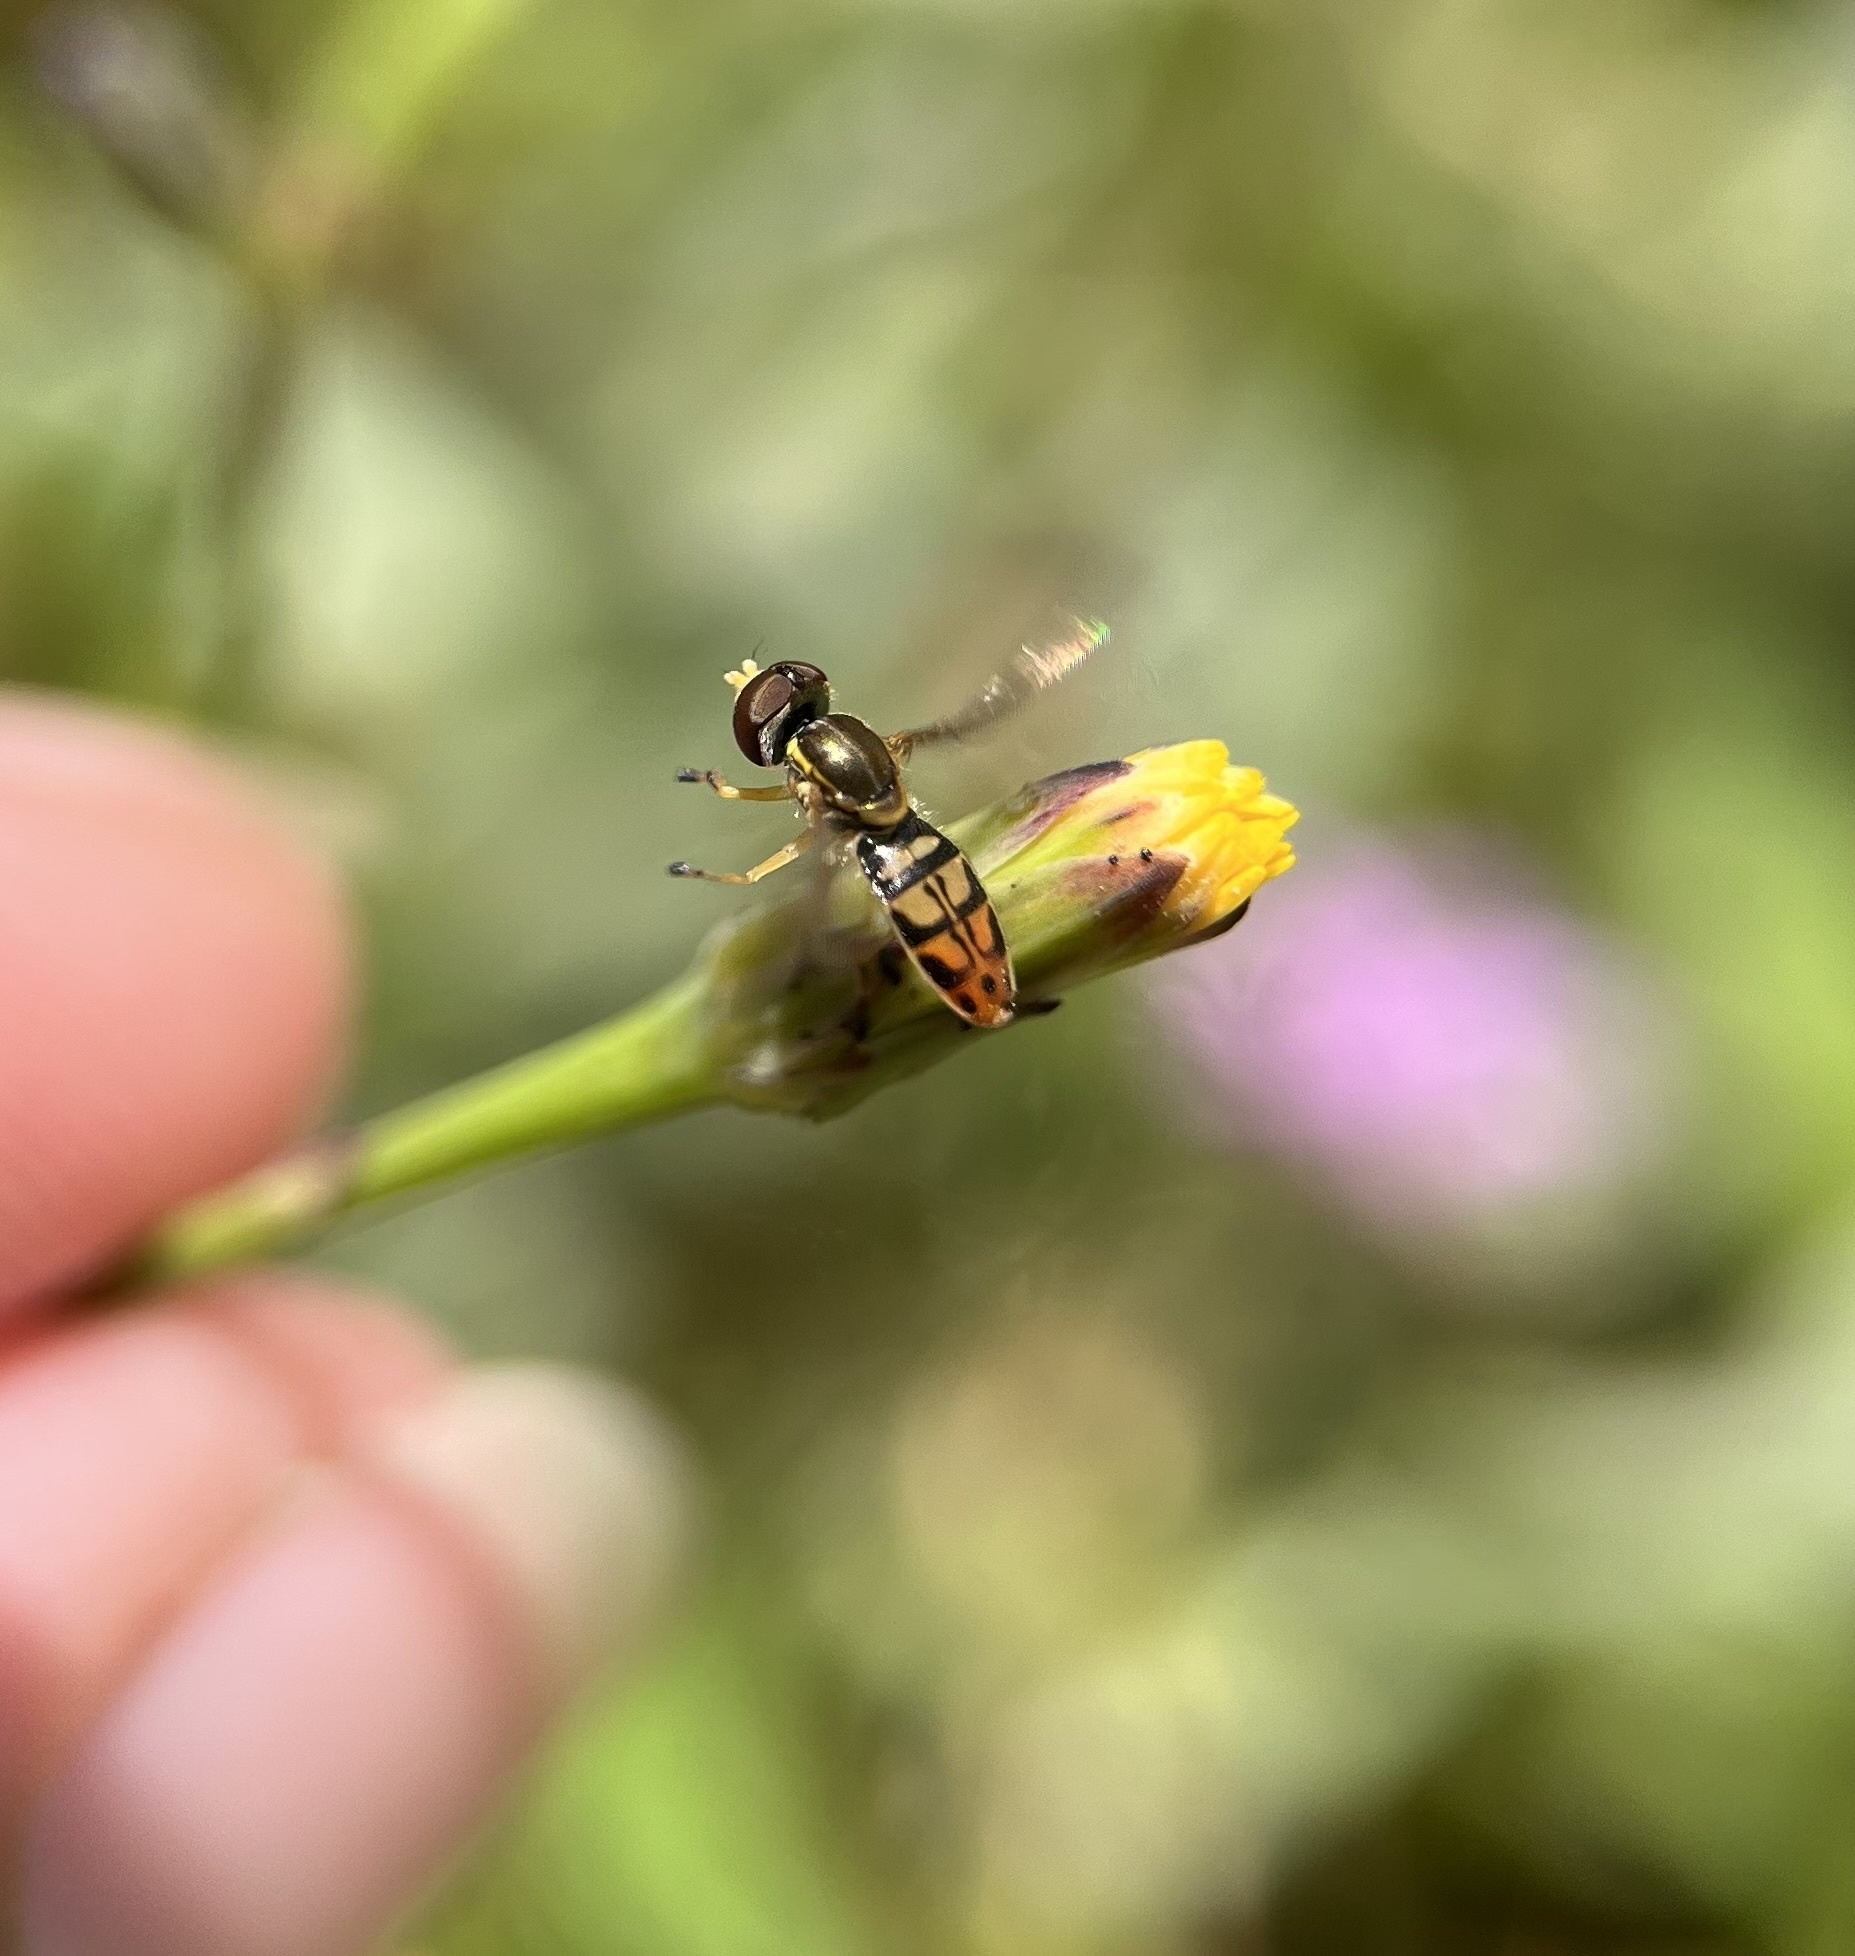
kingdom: Animalia
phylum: Arthropoda
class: Insecta
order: Diptera
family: Syrphidae
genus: Toxomerus
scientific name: Toxomerus marginatus
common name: Syrphid fly
